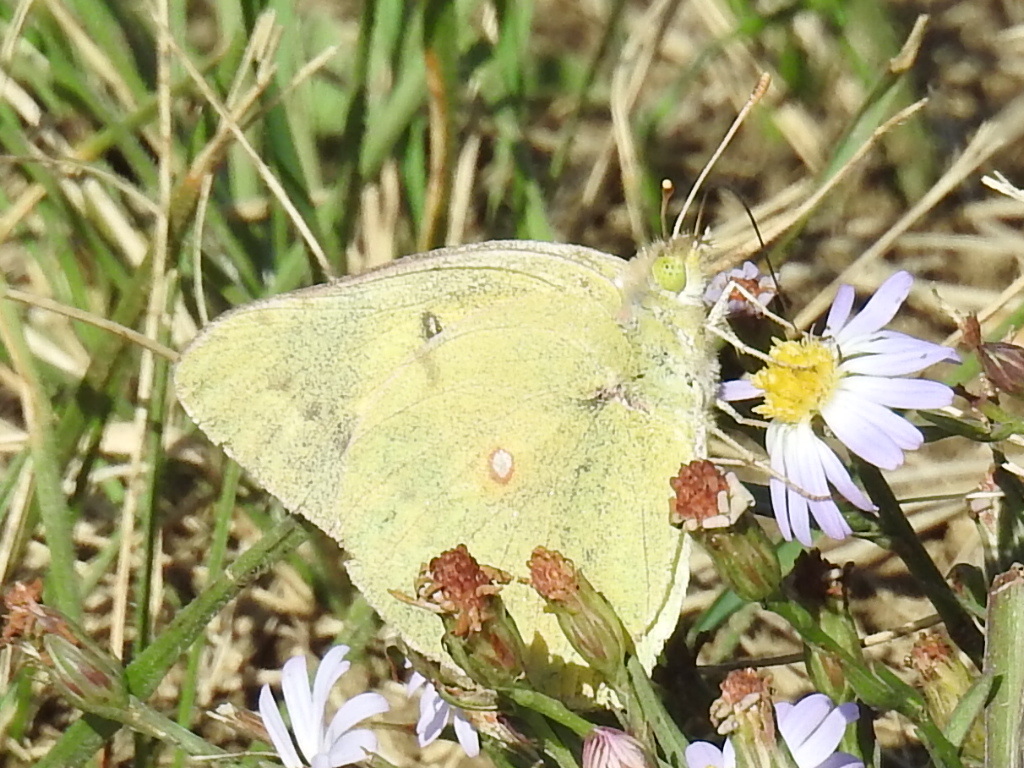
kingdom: Animalia
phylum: Arthropoda
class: Insecta
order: Lepidoptera
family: Pieridae
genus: Colias
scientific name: Colias eurytheme
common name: Alfalfa butterfly
